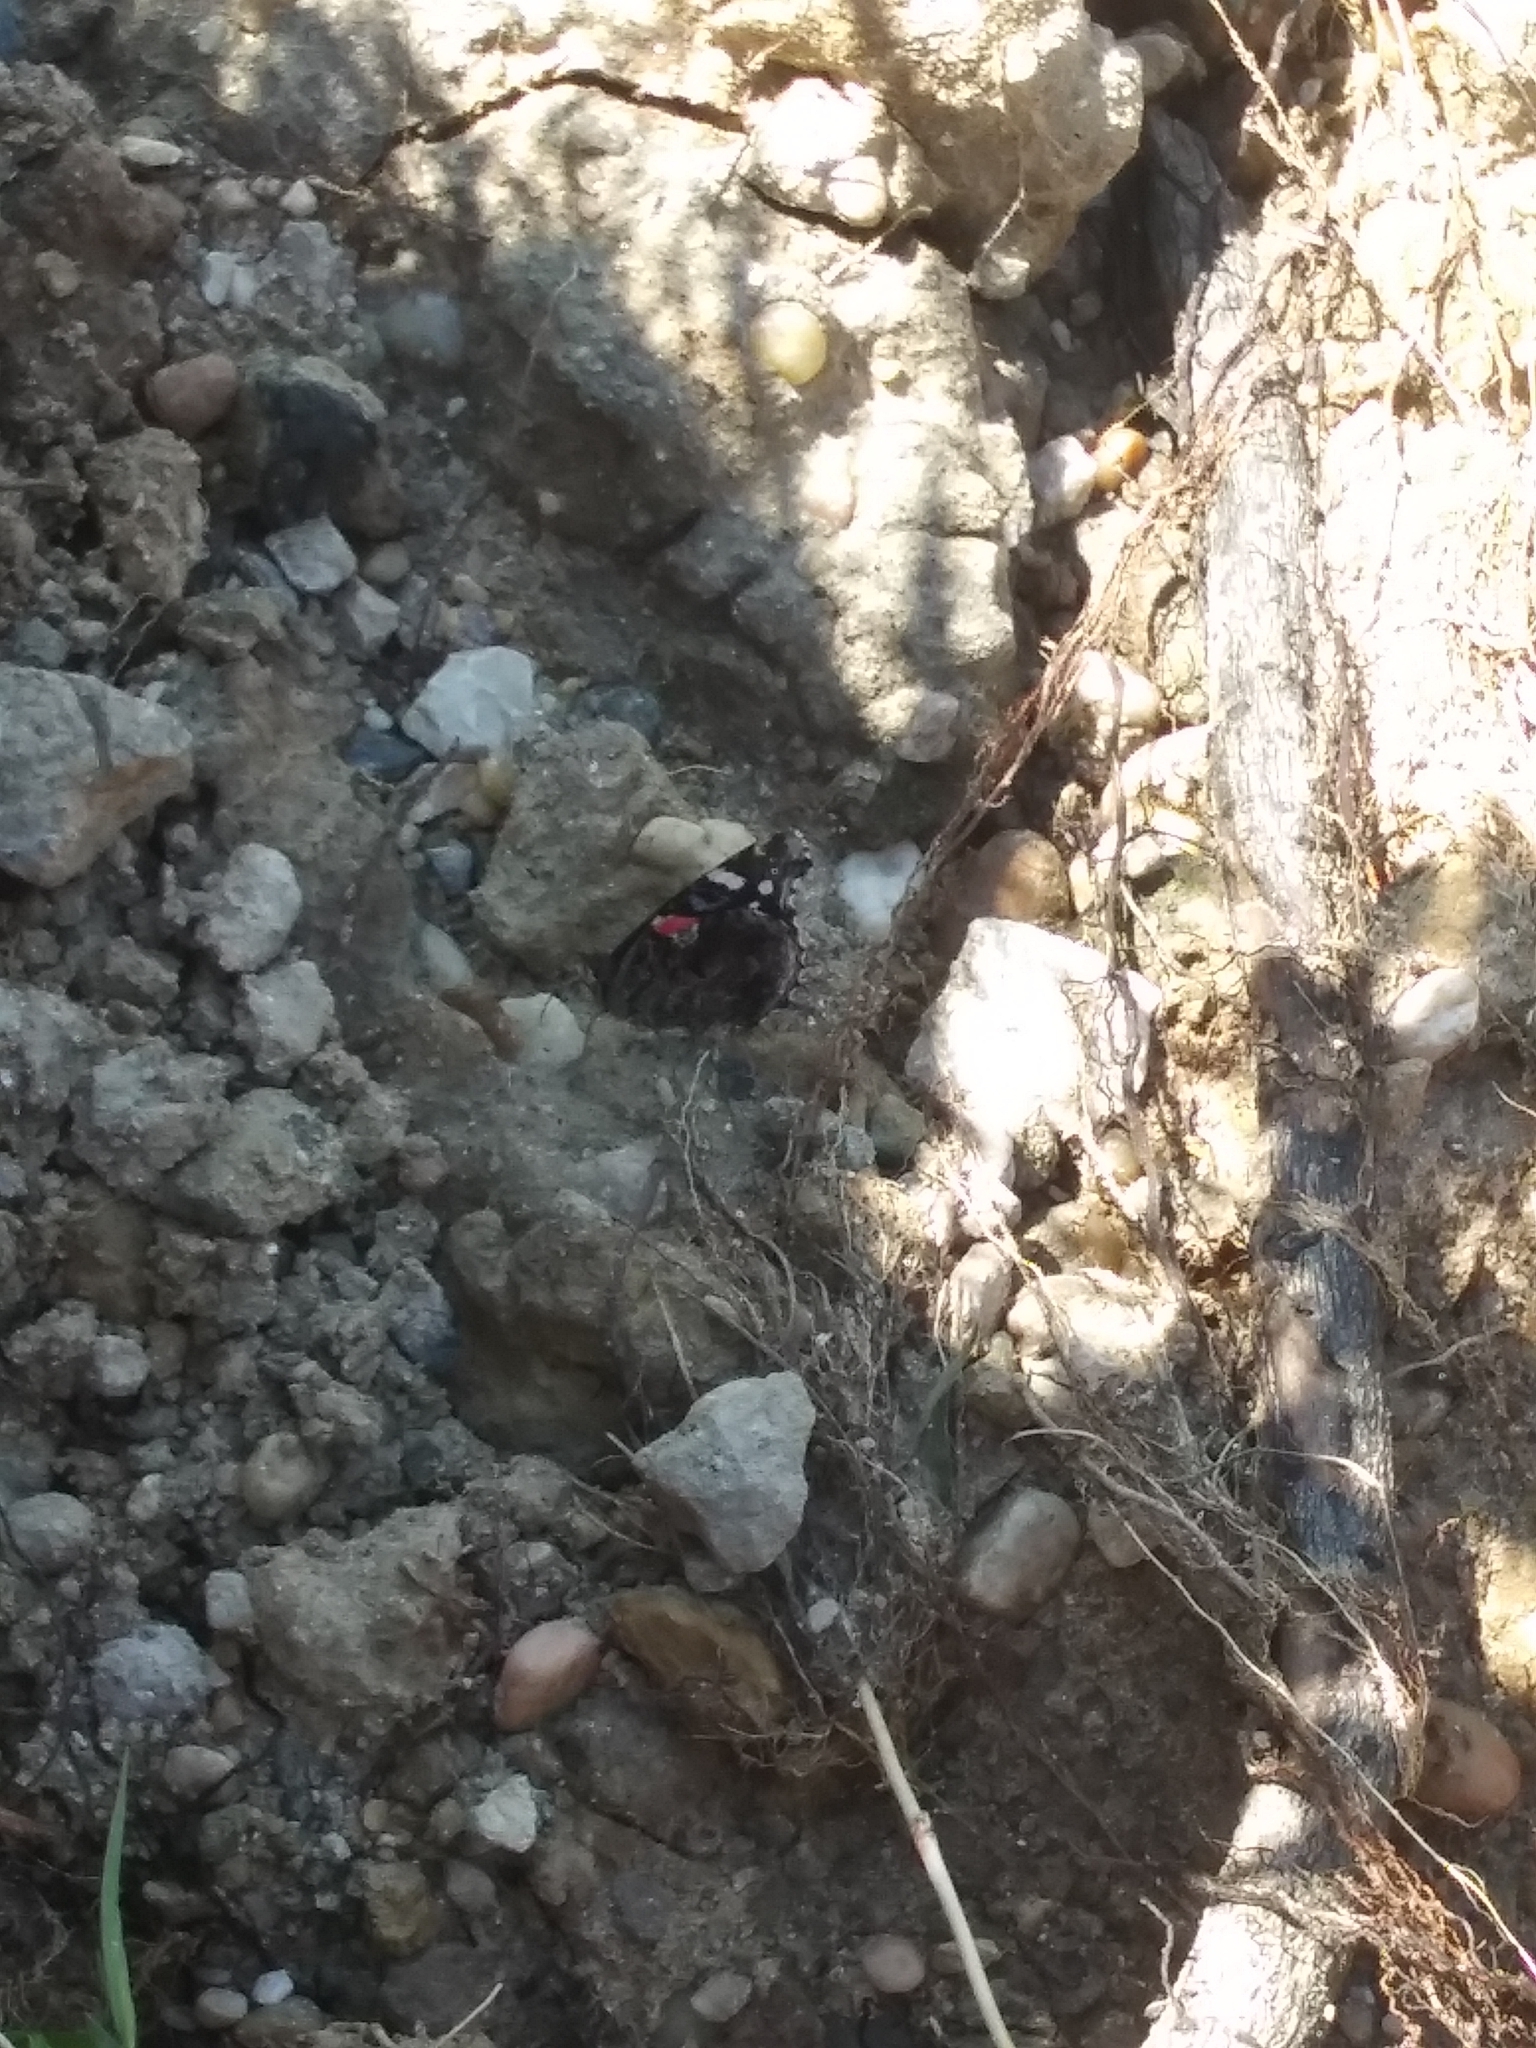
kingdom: Animalia
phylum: Arthropoda
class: Insecta
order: Lepidoptera
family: Nymphalidae
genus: Vanessa
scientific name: Vanessa atalanta
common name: Red admiral
